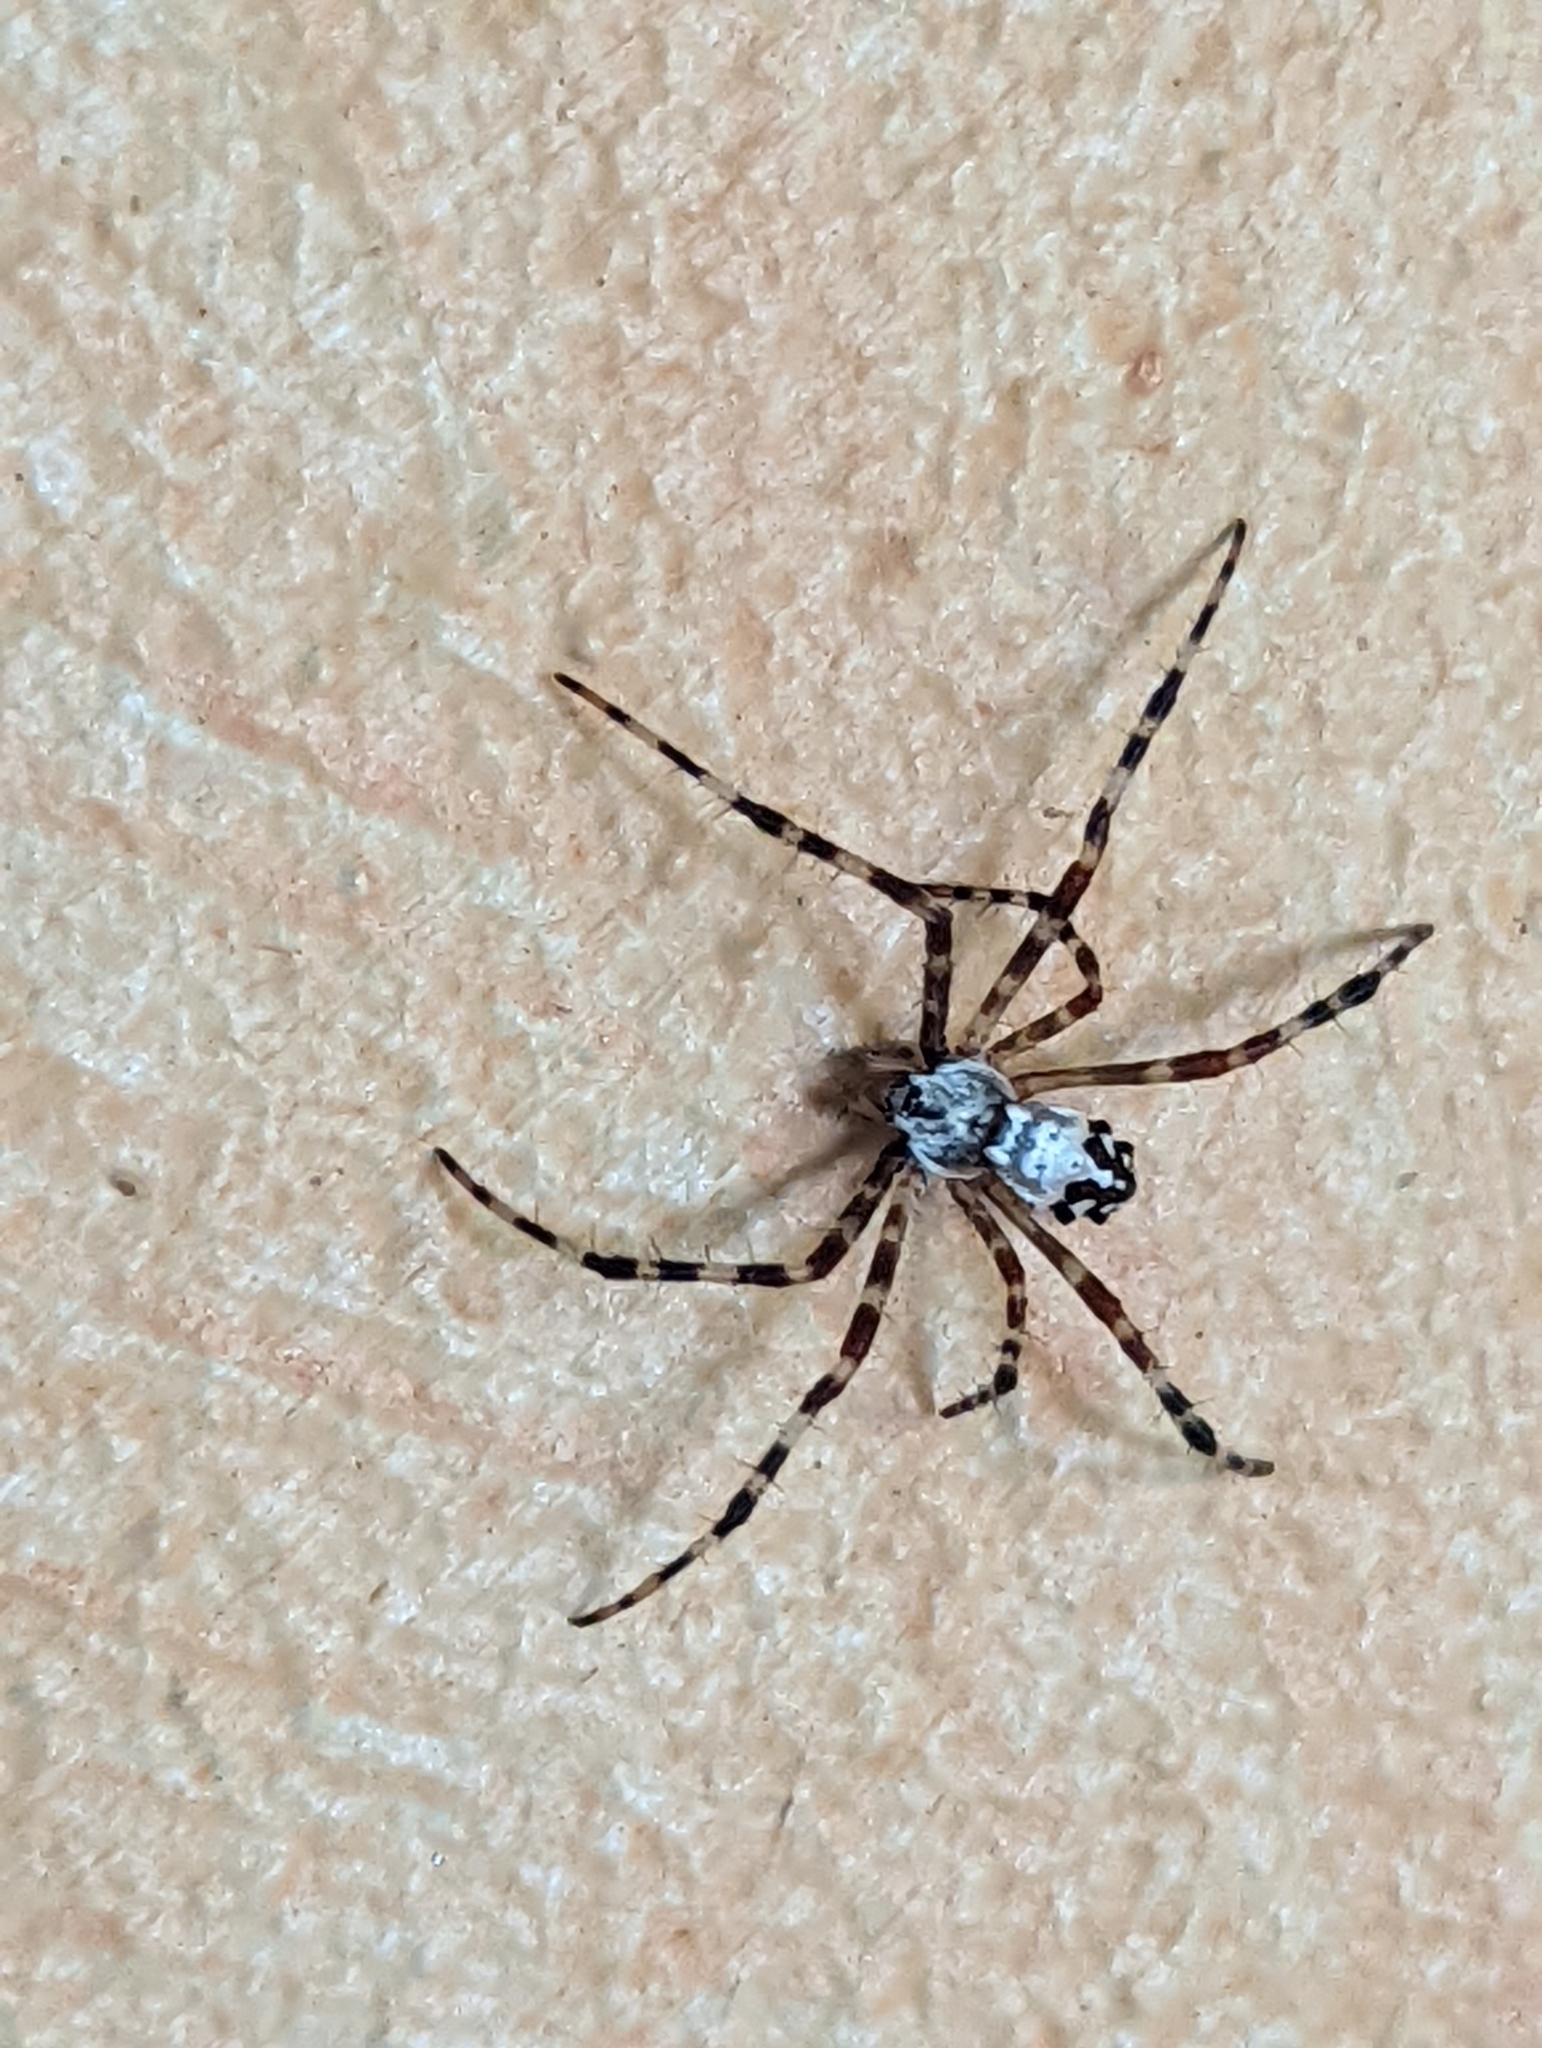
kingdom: Animalia
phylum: Arthropoda
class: Arachnida
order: Araneae
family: Araneidae
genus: Argiope
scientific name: Argiope argentata
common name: Orb weavers
